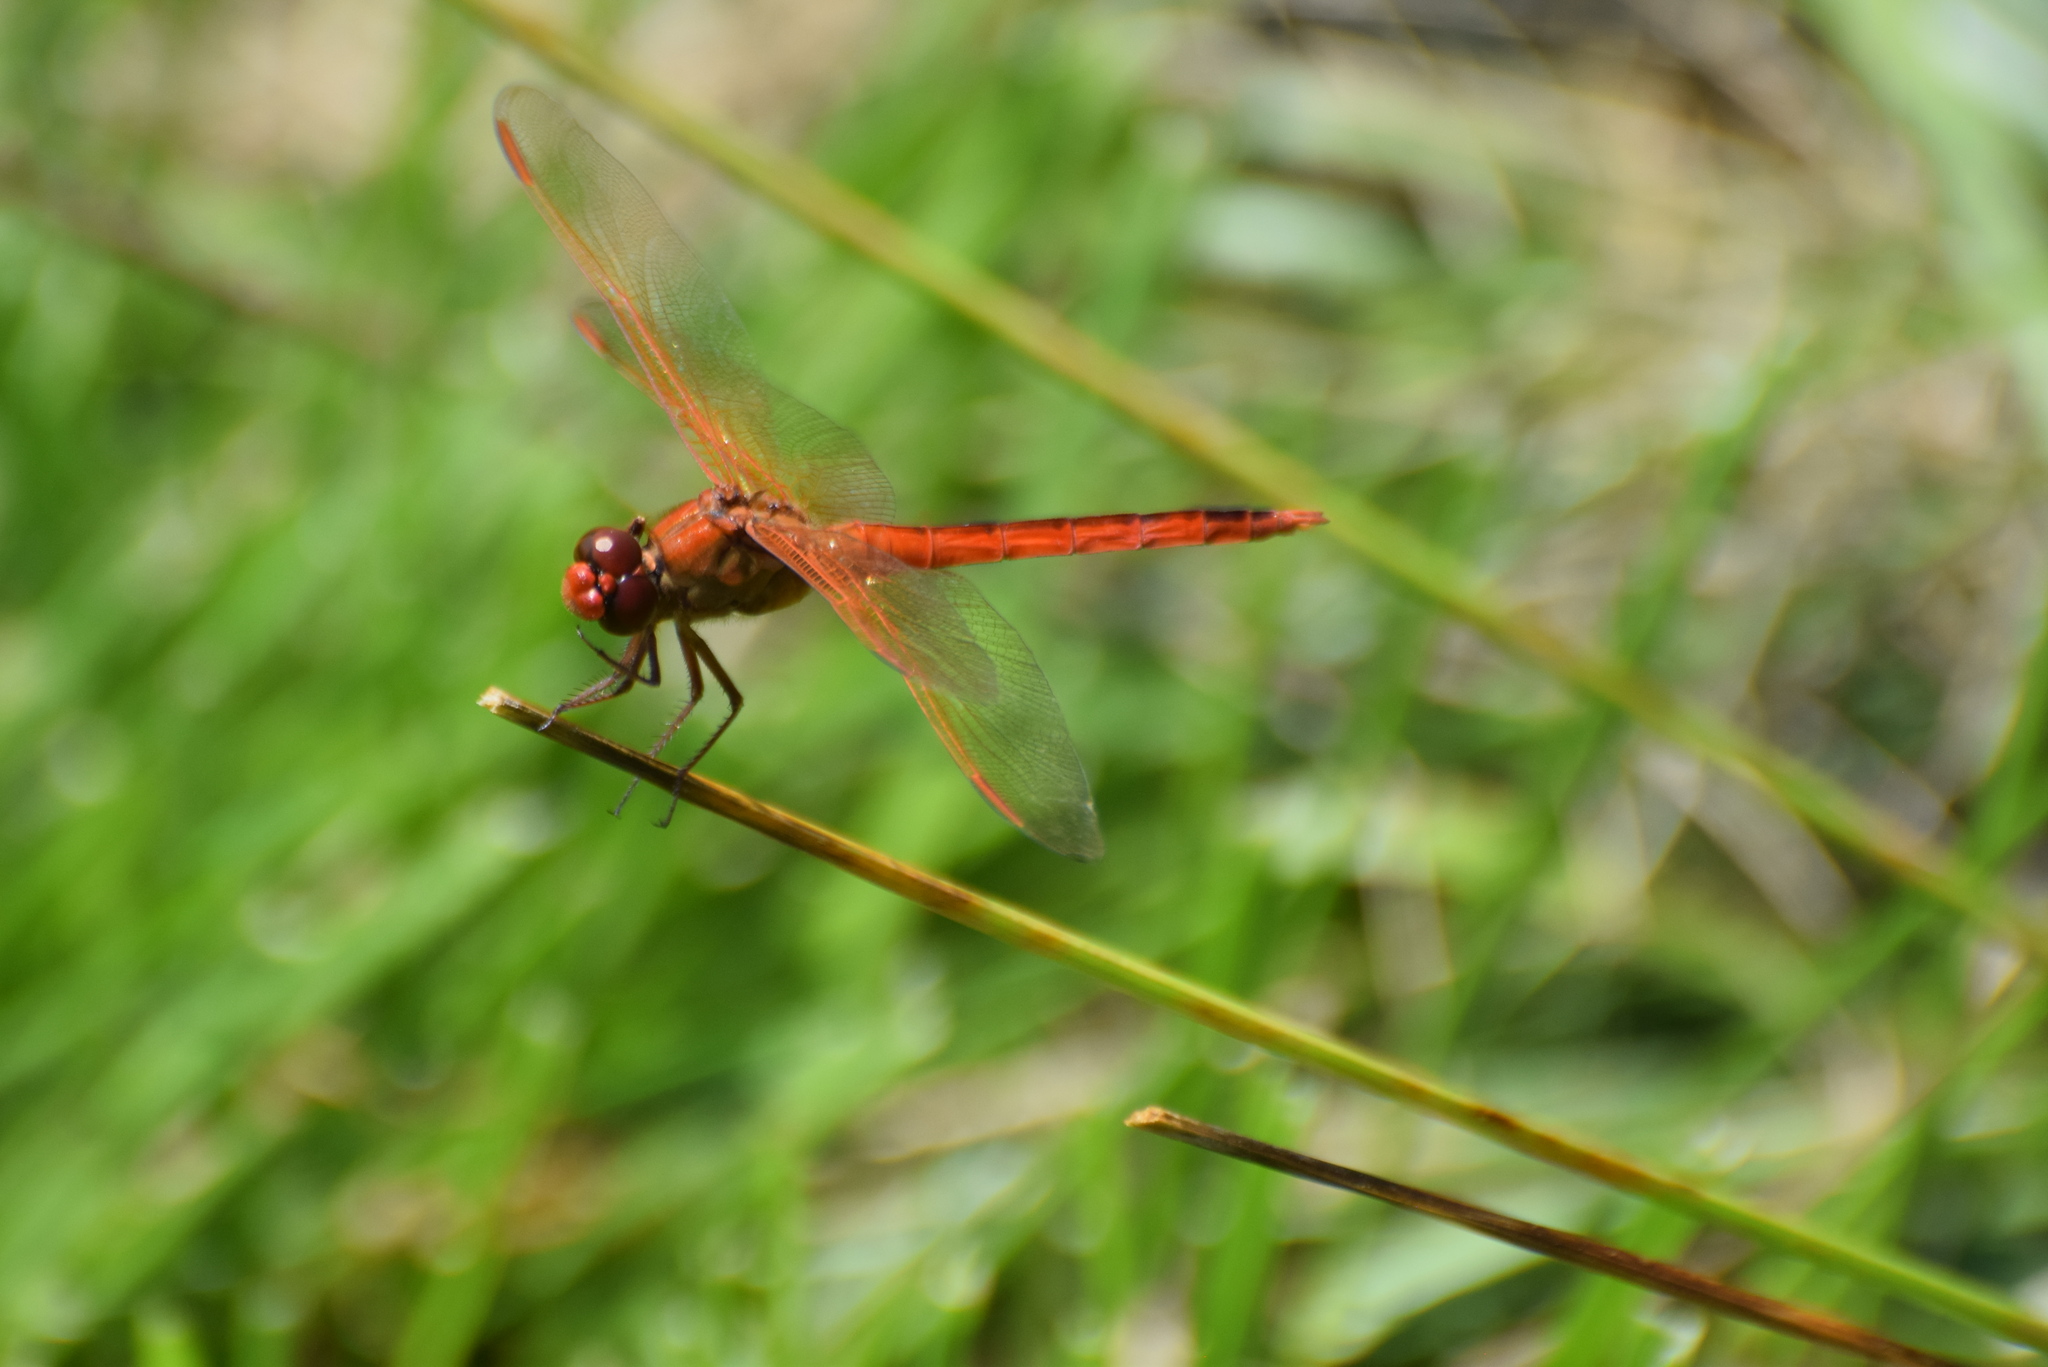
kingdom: Animalia
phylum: Arthropoda
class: Insecta
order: Odonata
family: Libellulidae
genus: Libellula
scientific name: Libellula needhami
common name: Needham's skimmer
